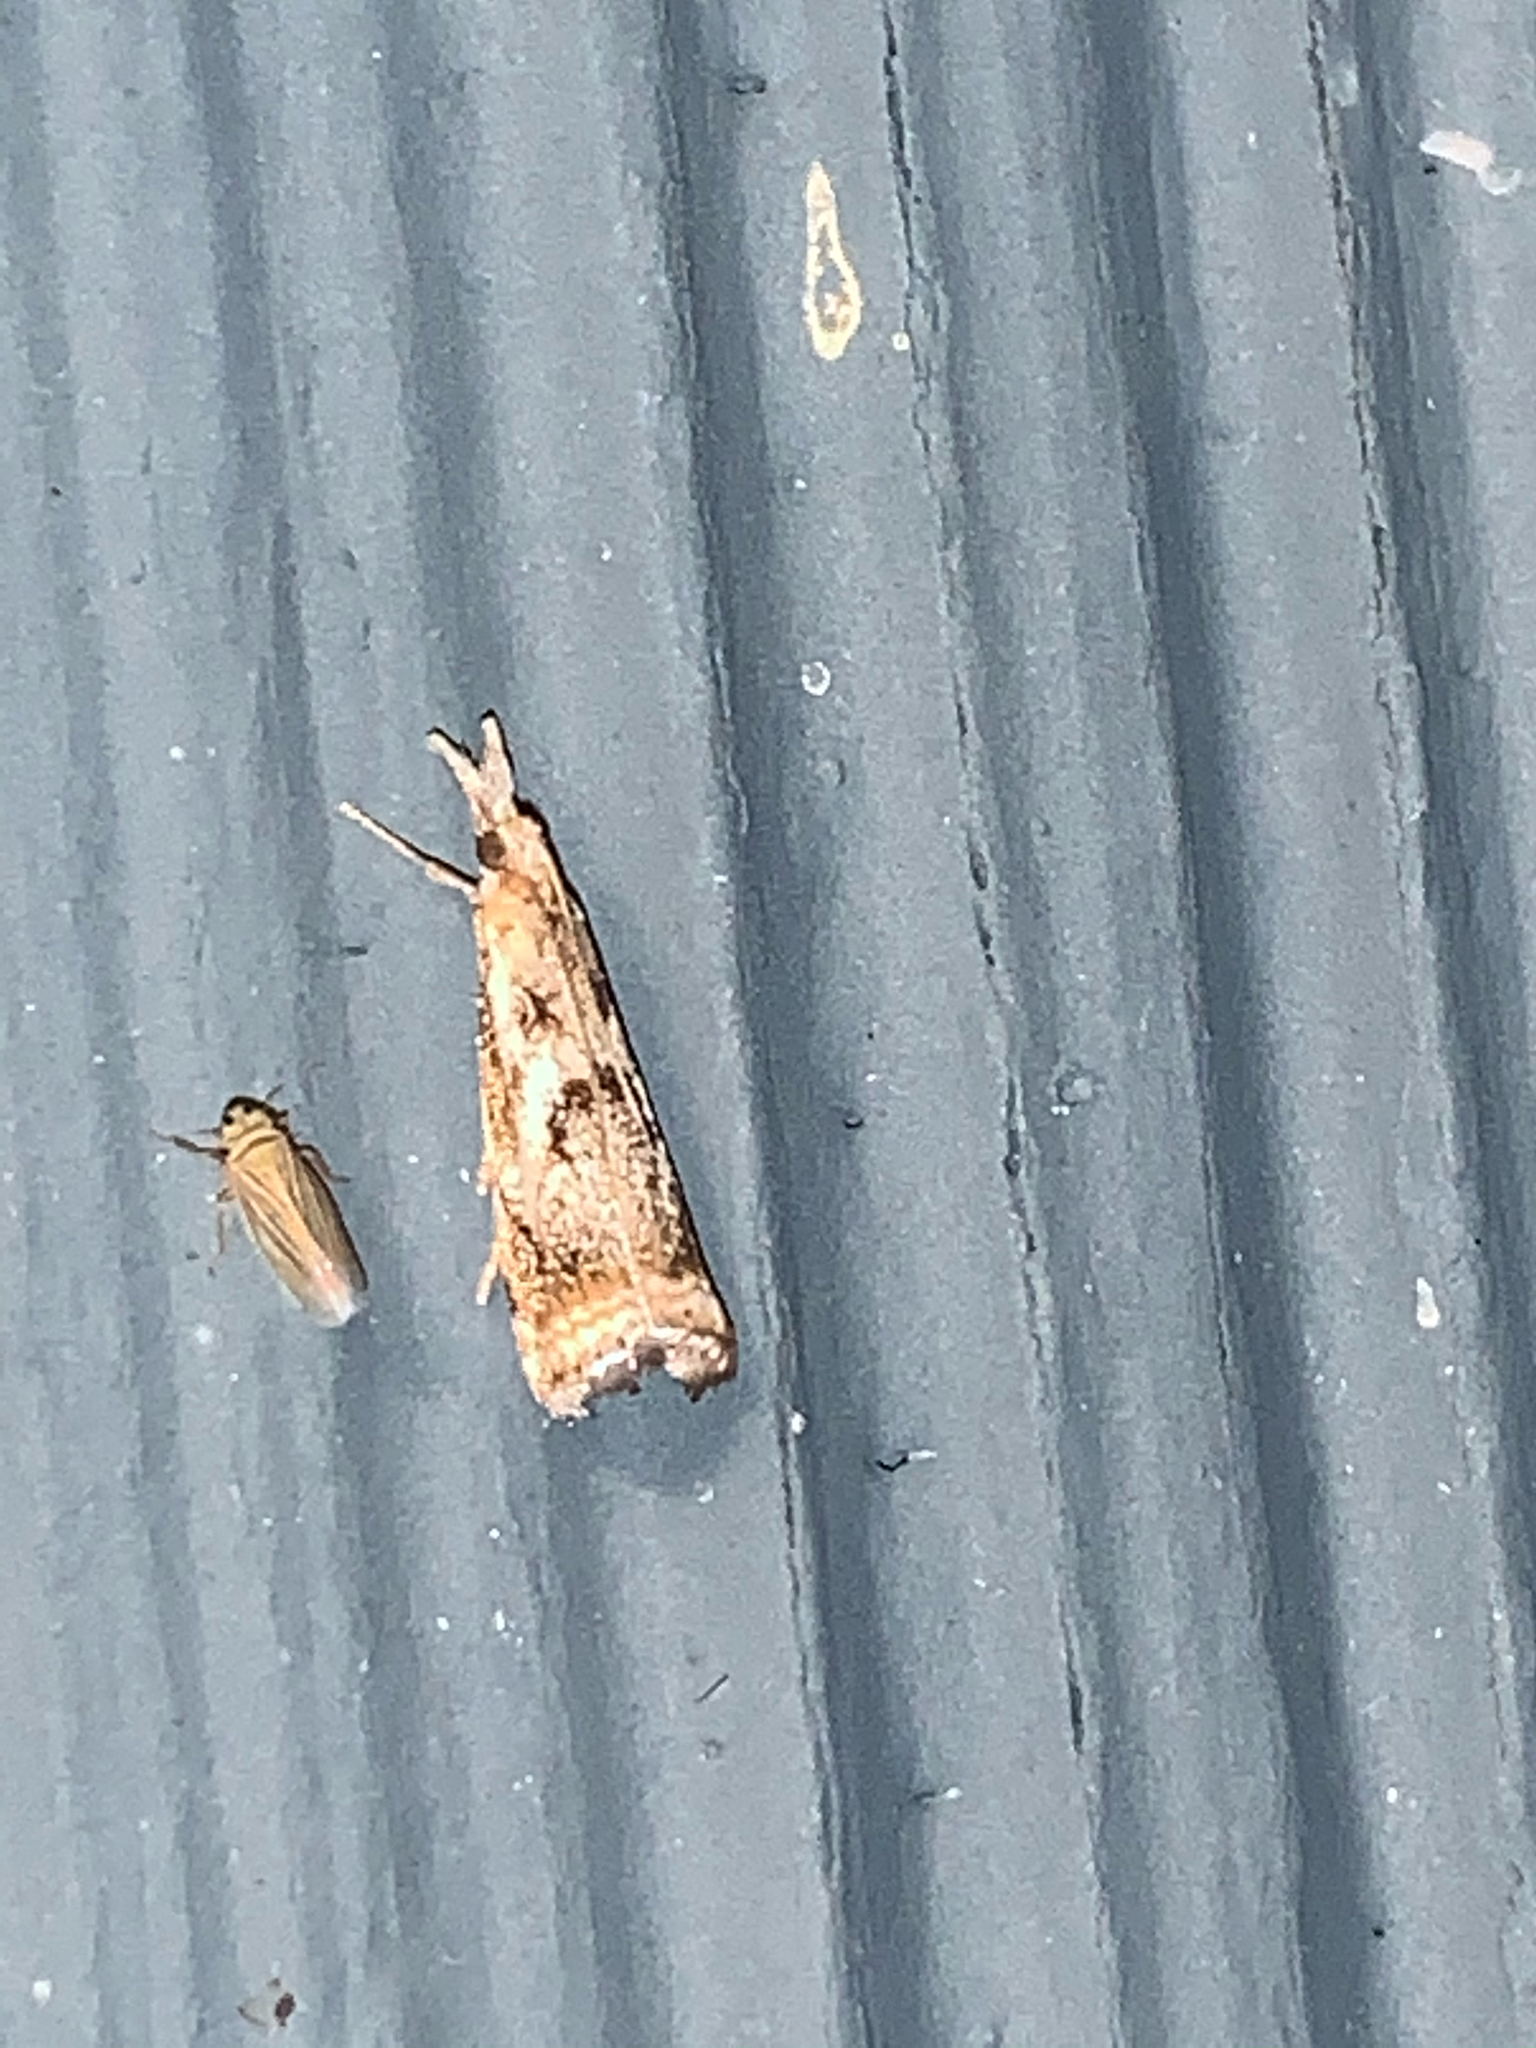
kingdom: Animalia
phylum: Arthropoda
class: Insecta
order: Lepidoptera
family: Crambidae
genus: Microcrambus
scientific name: Microcrambus elegans
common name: Elegant grass-veneer
